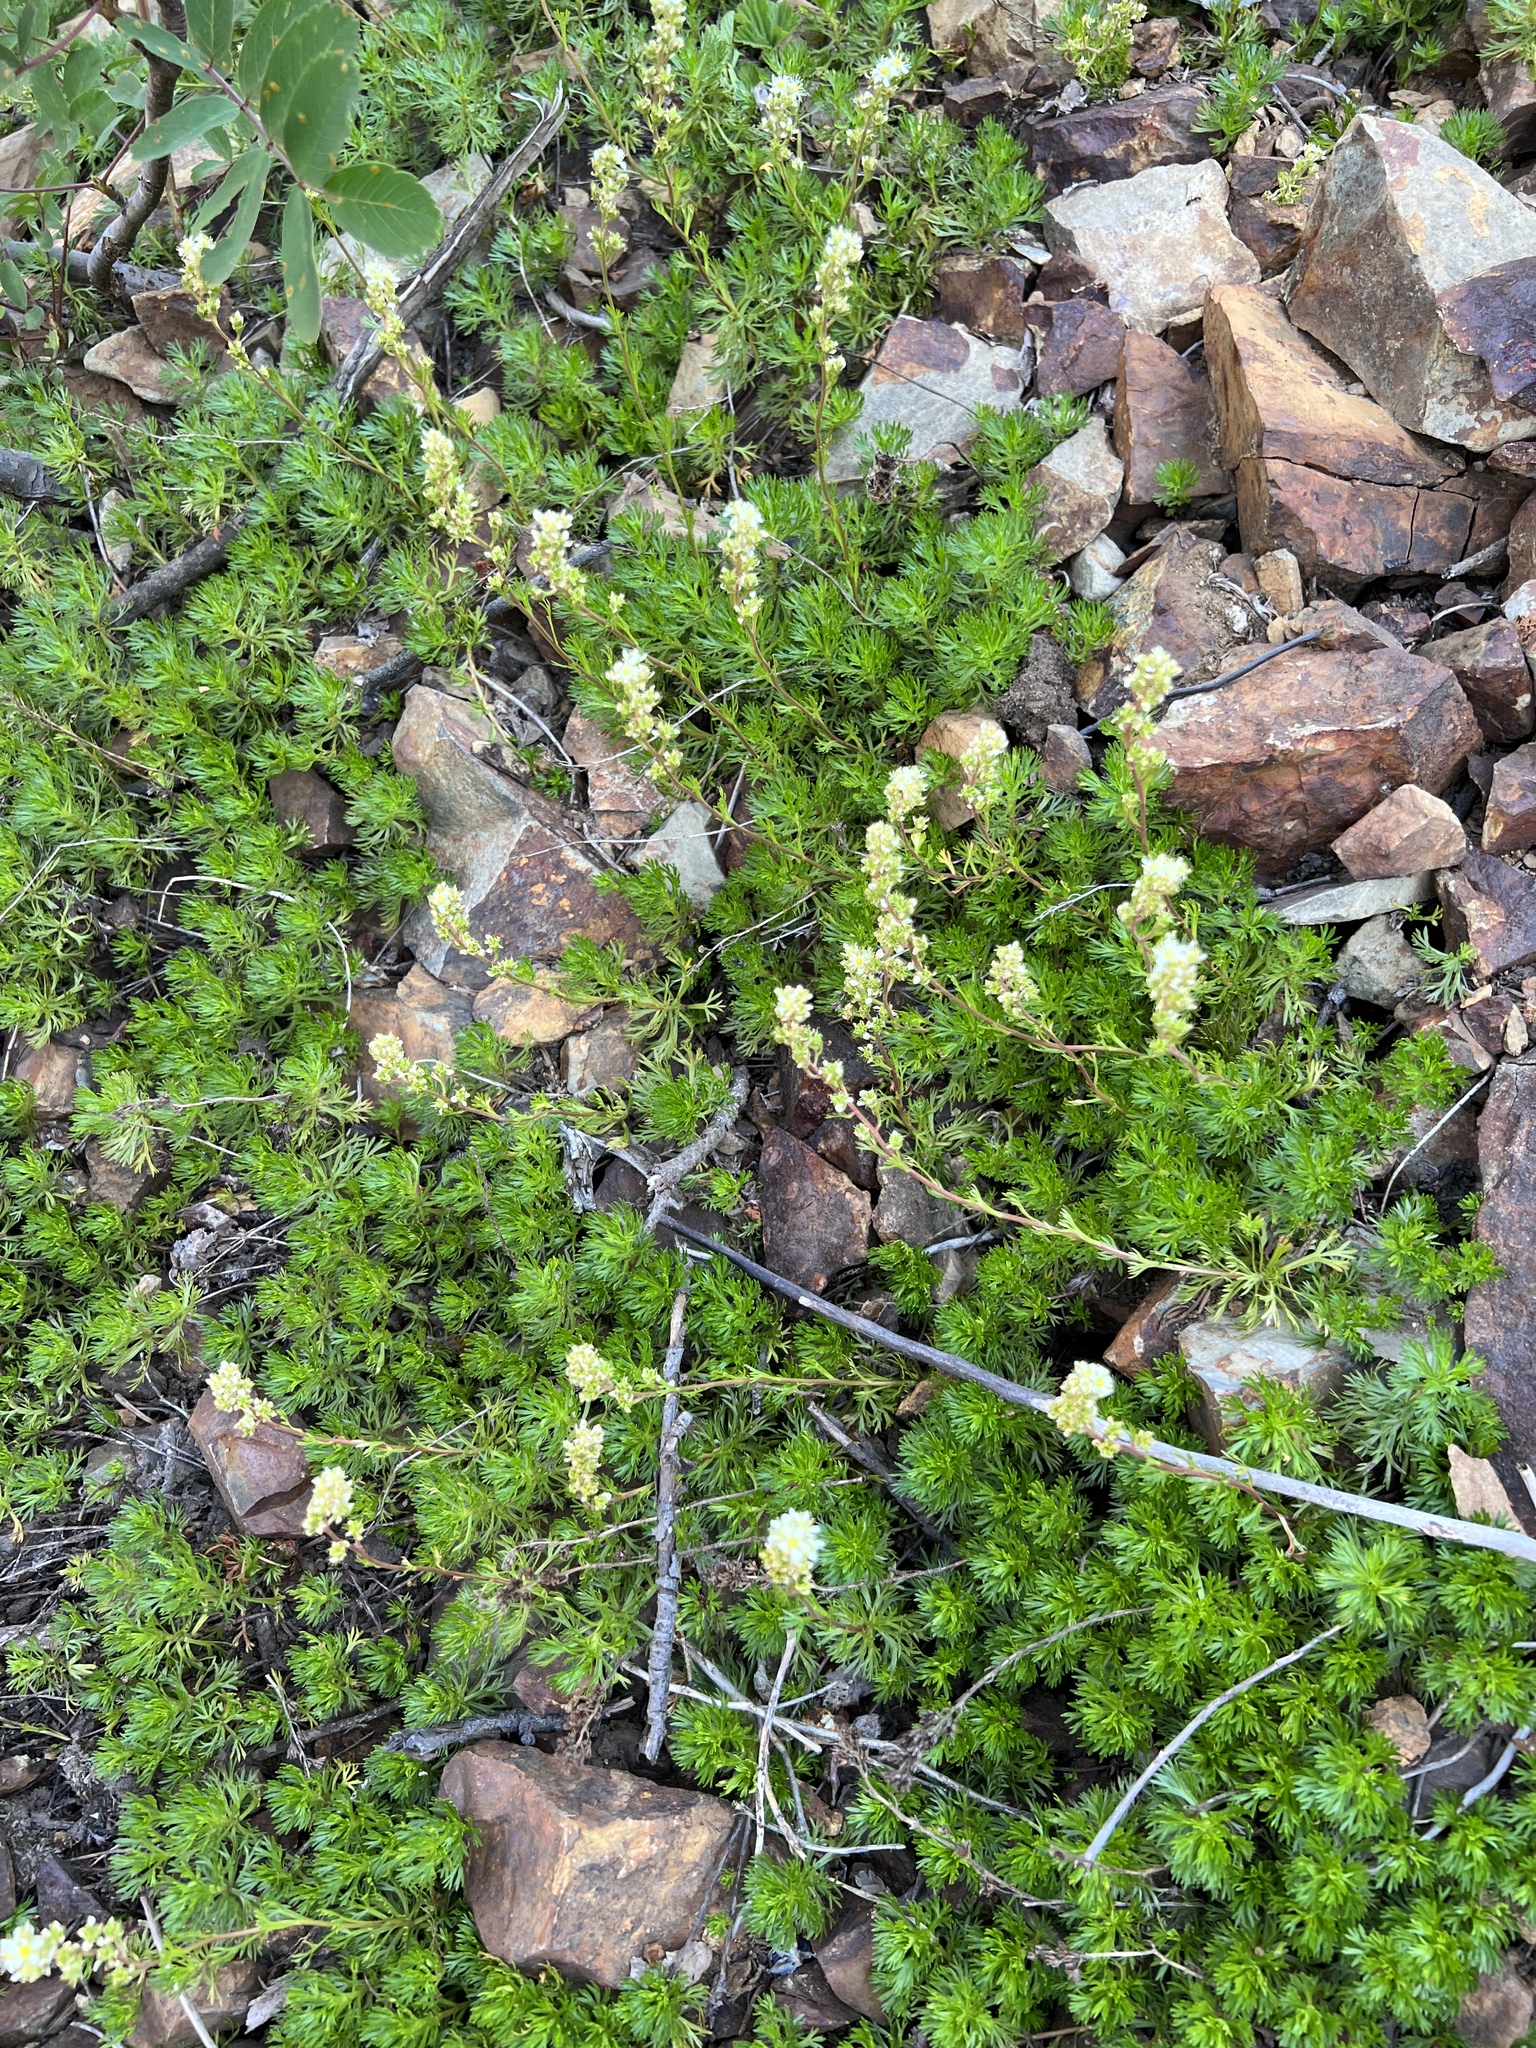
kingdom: Plantae
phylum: Tracheophyta
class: Magnoliopsida
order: Rosales
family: Rosaceae
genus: Luetkea
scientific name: Luetkea pectinata
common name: Partridgefoot
